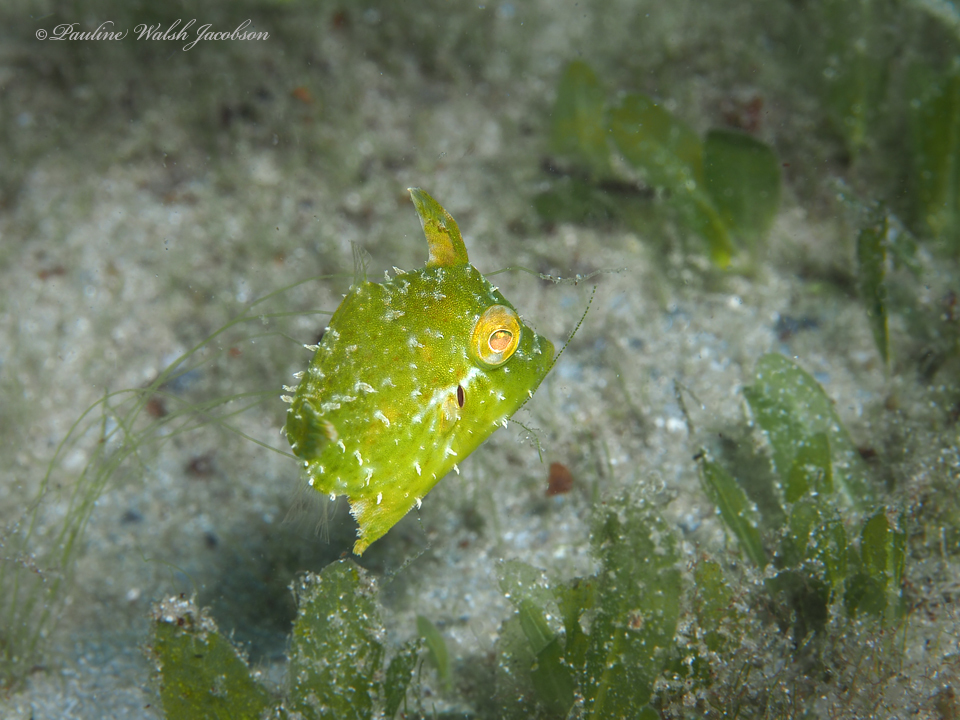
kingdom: Animalia
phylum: Chordata
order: Tetraodontiformes
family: Monacanthidae
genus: Stephanolepis
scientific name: Stephanolepis hispidus
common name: Planehead filefish
